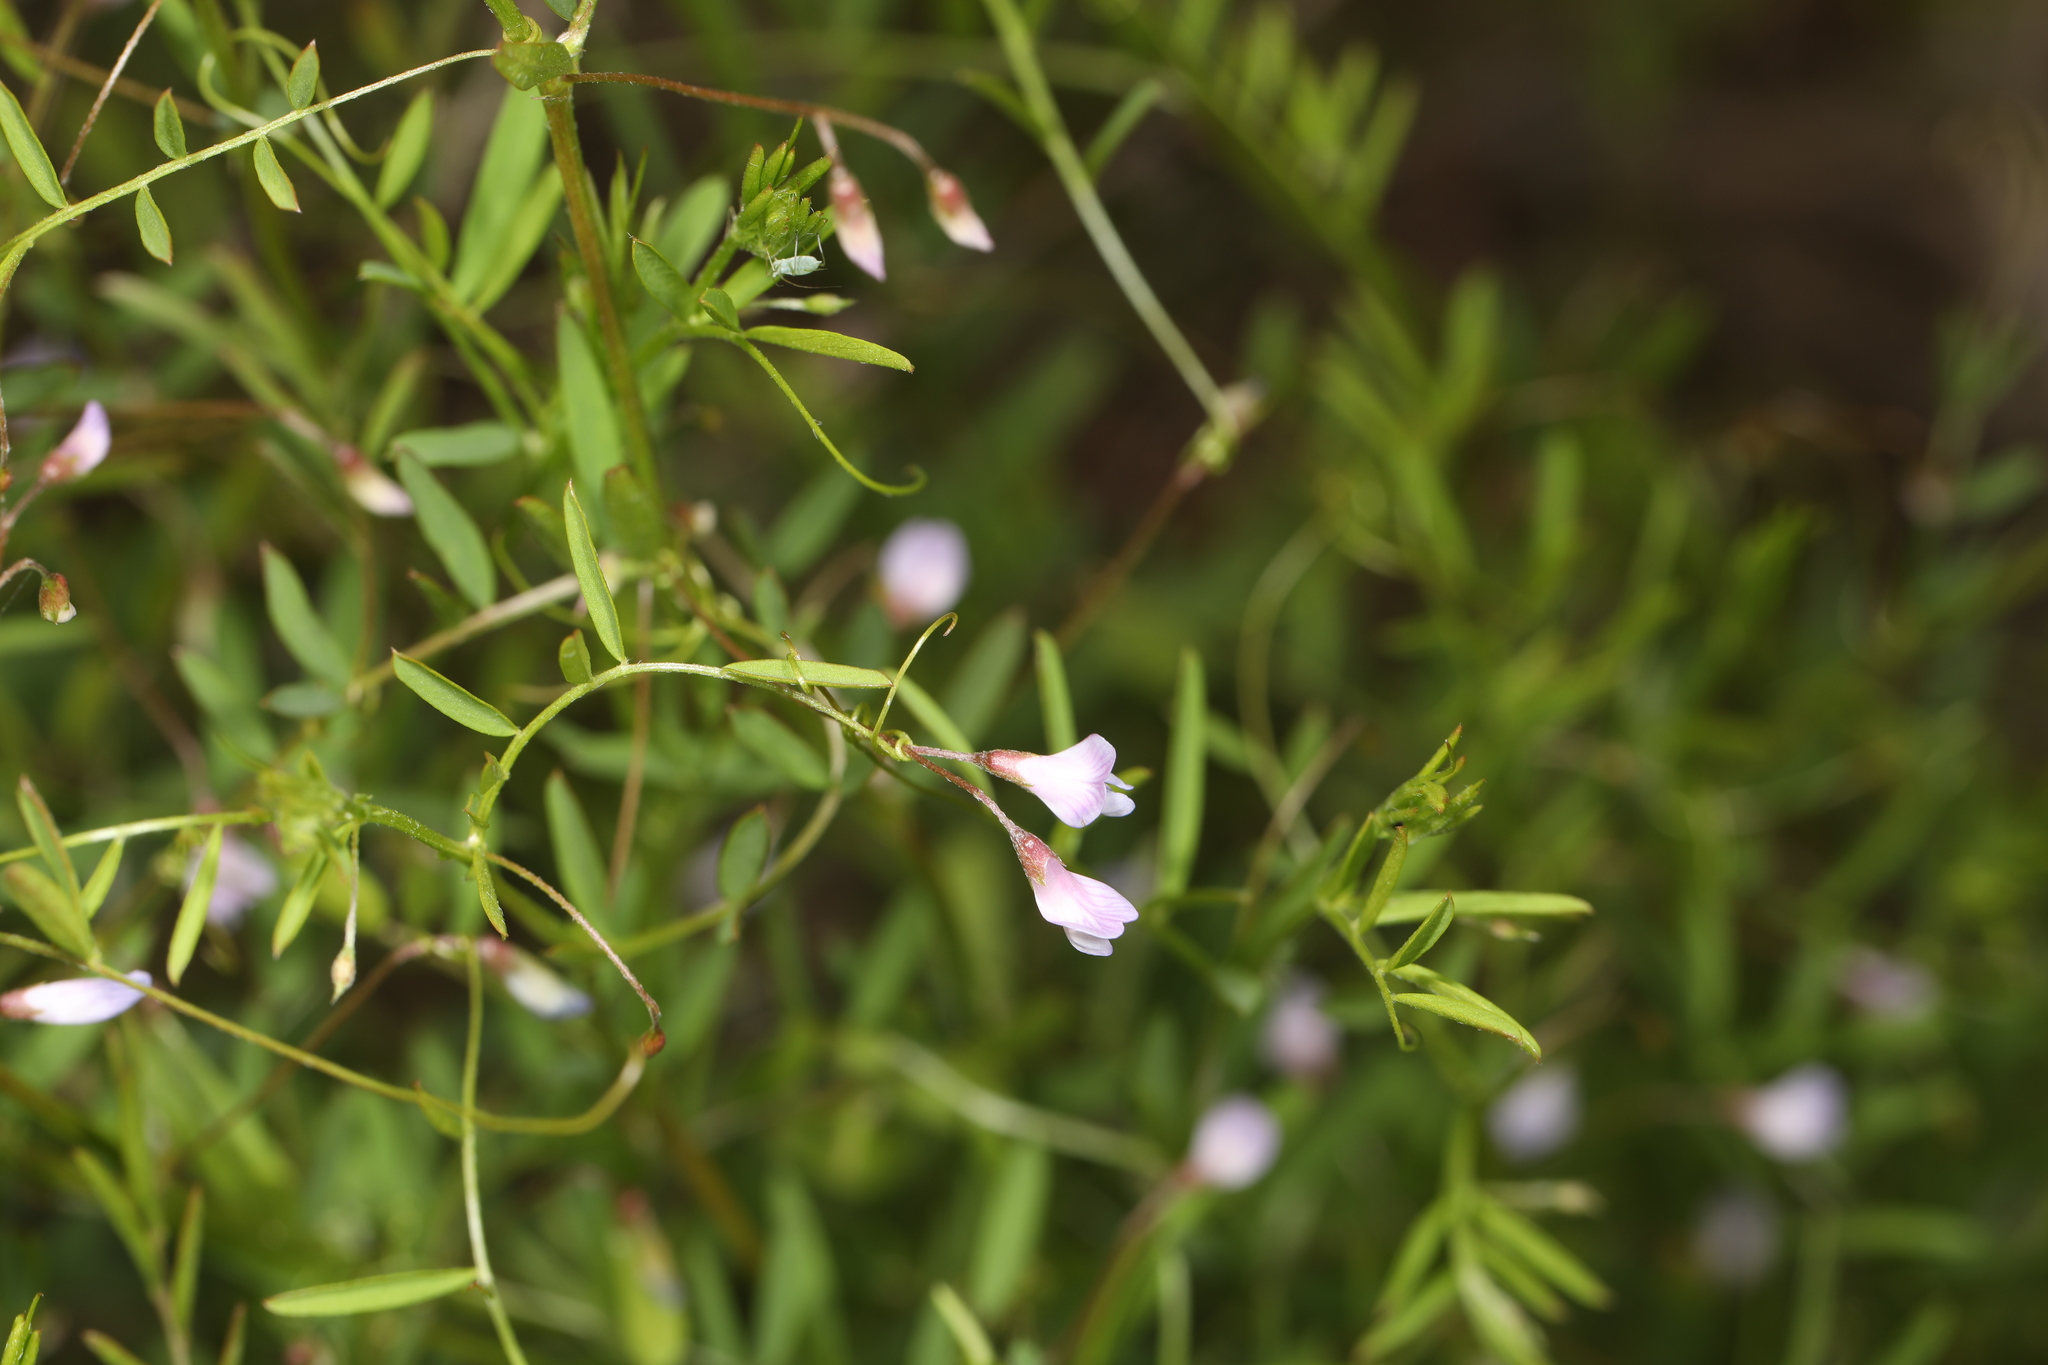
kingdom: Plantae
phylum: Tracheophyta
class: Magnoliopsida
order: Fabales
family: Fabaceae
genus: Vicia
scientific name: Vicia tetrasperma
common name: Smooth tare
